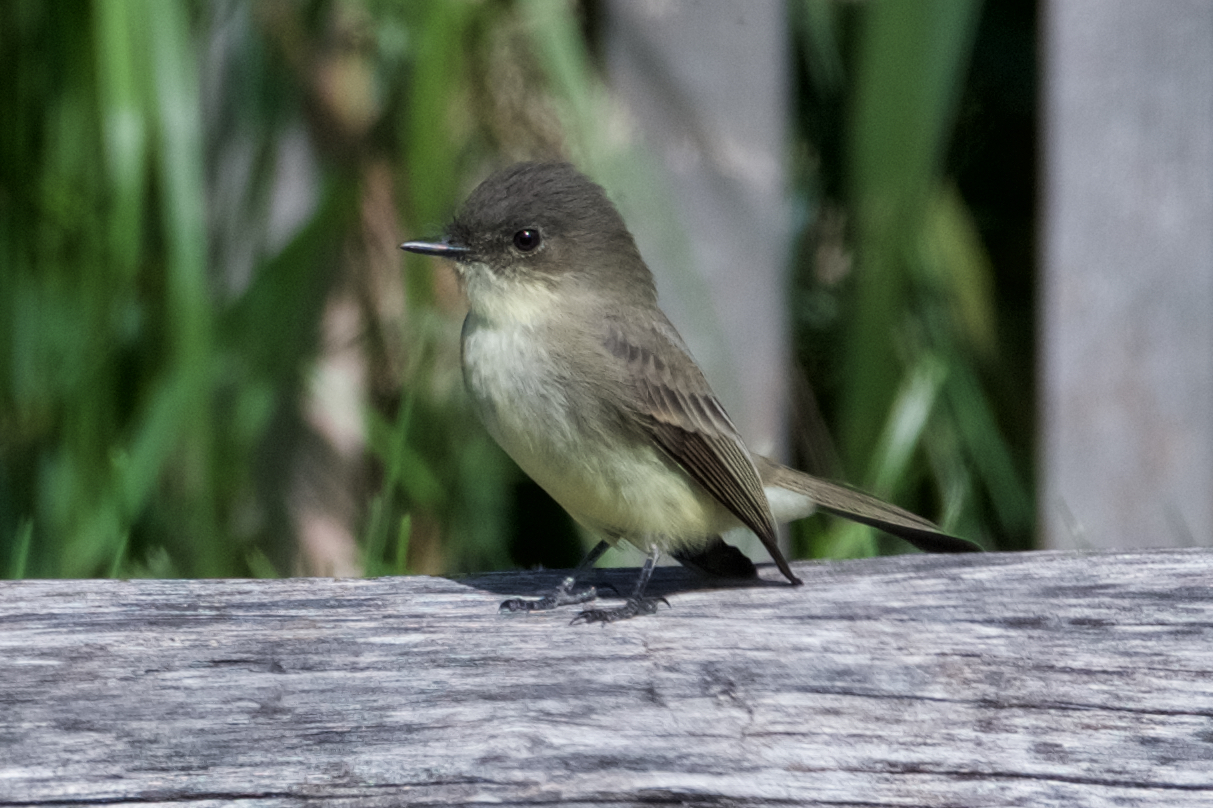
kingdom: Animalia
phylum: Chordata
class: Aves
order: Passeriformes
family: Tyrannidae
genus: Sayornis
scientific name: Sayornis phoebe
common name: Eastern phoebe
